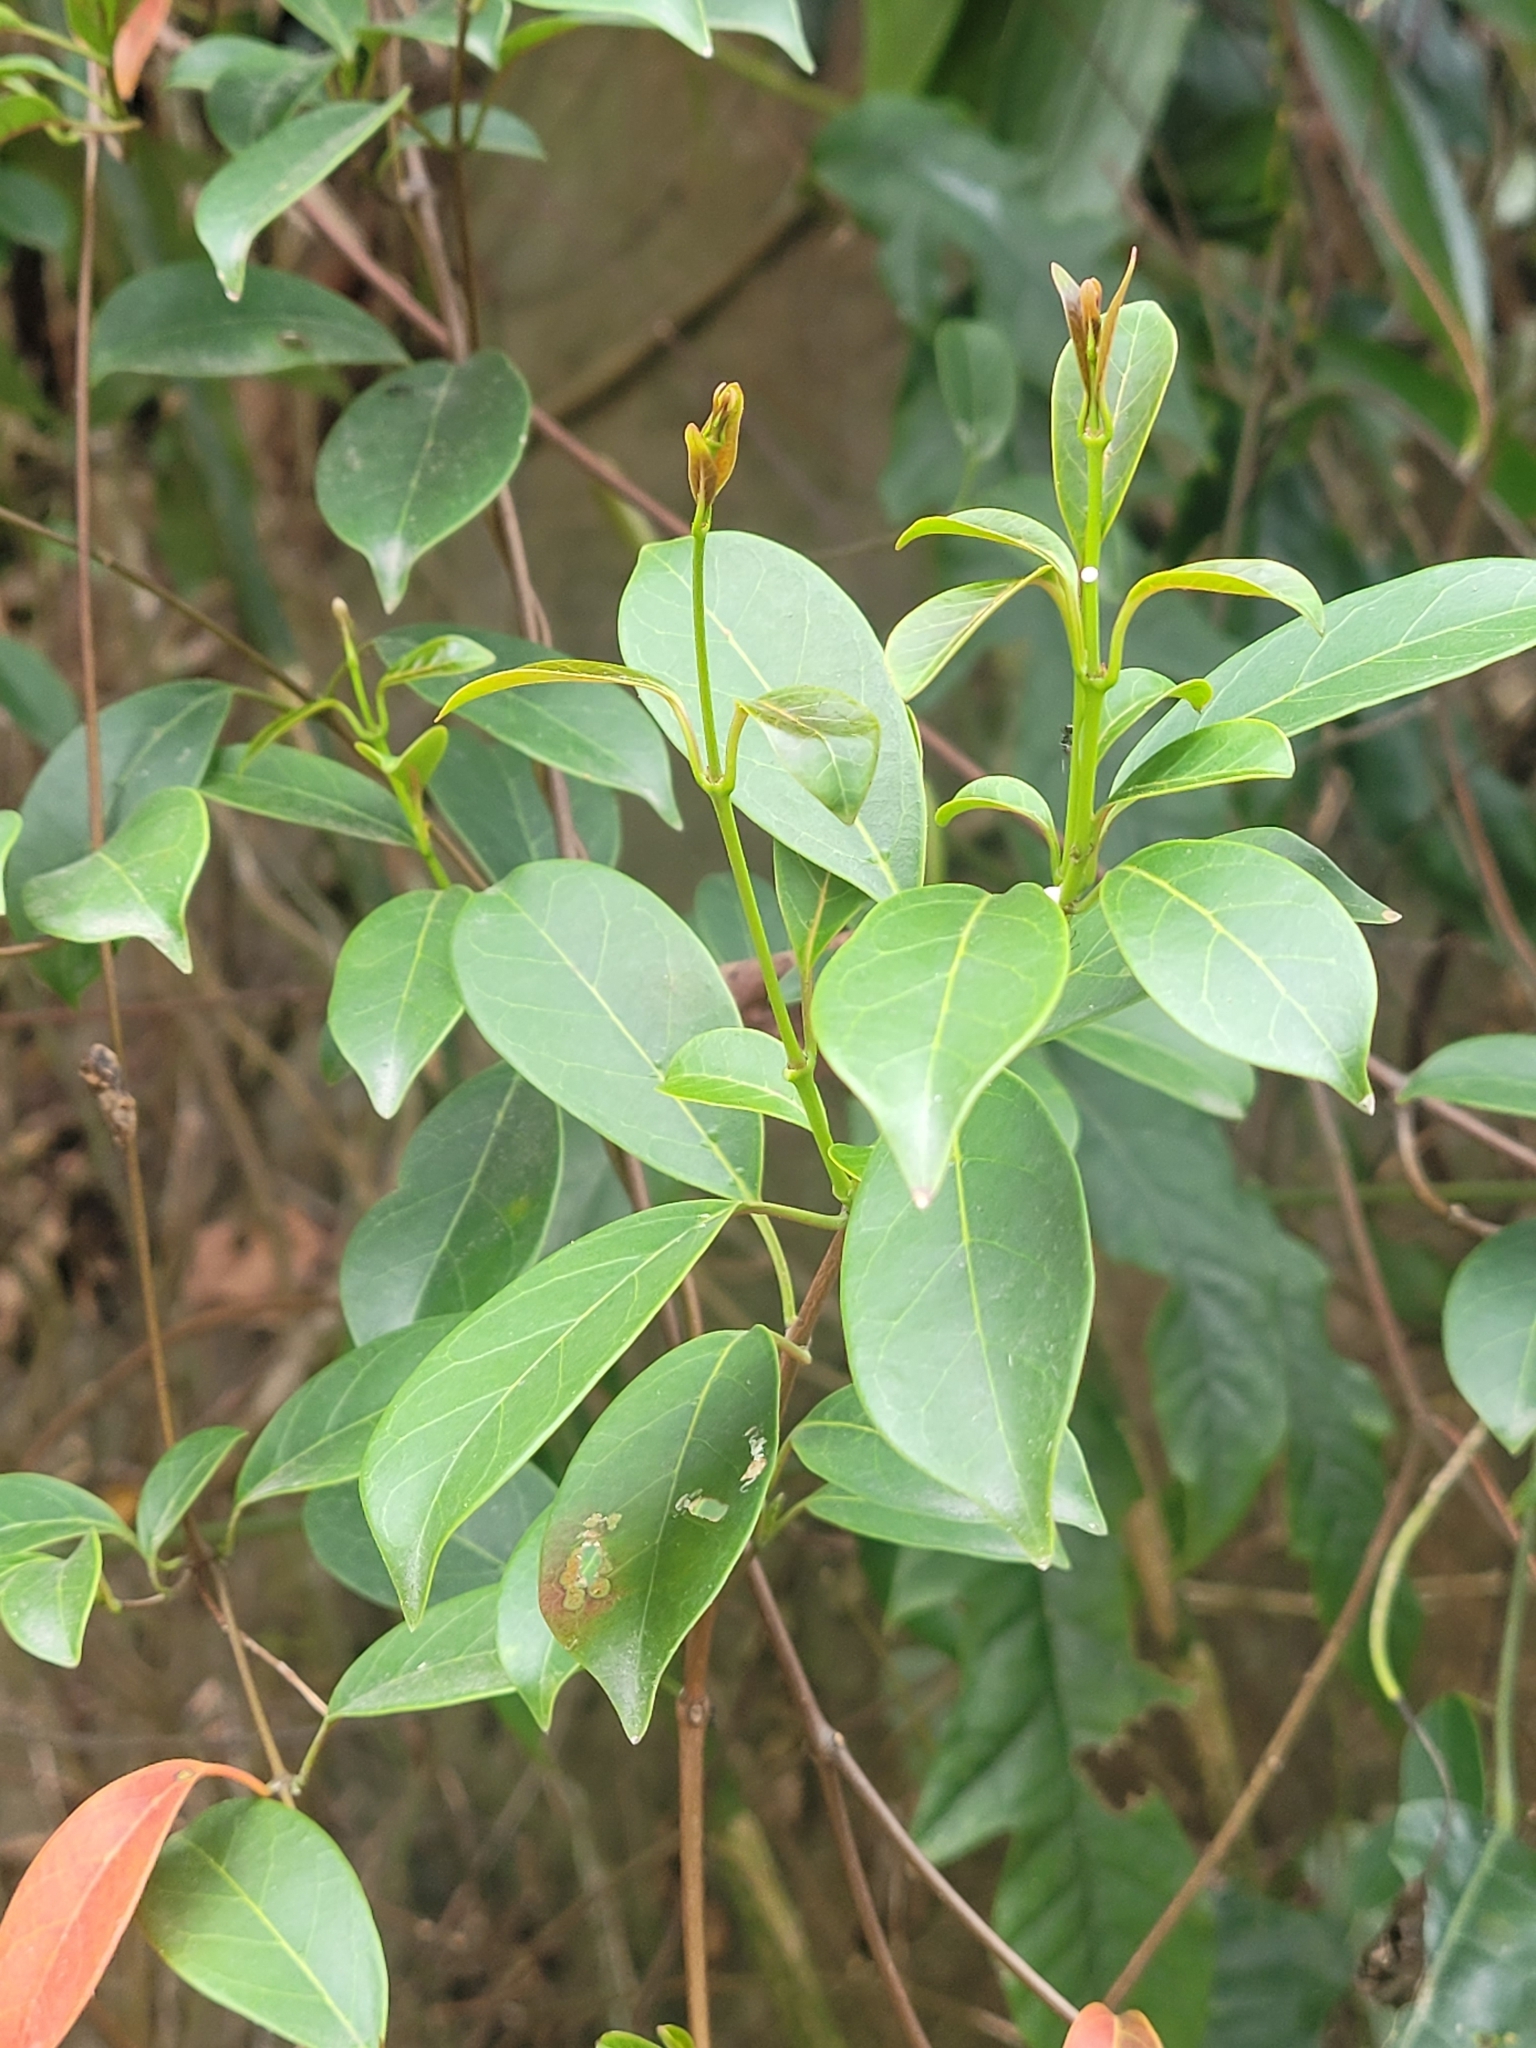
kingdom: Plantae
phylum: Tracheophyta
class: Magnoliopsida
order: Gentianales
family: Apocynaceae
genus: Urceola
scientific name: Urceola rosea
